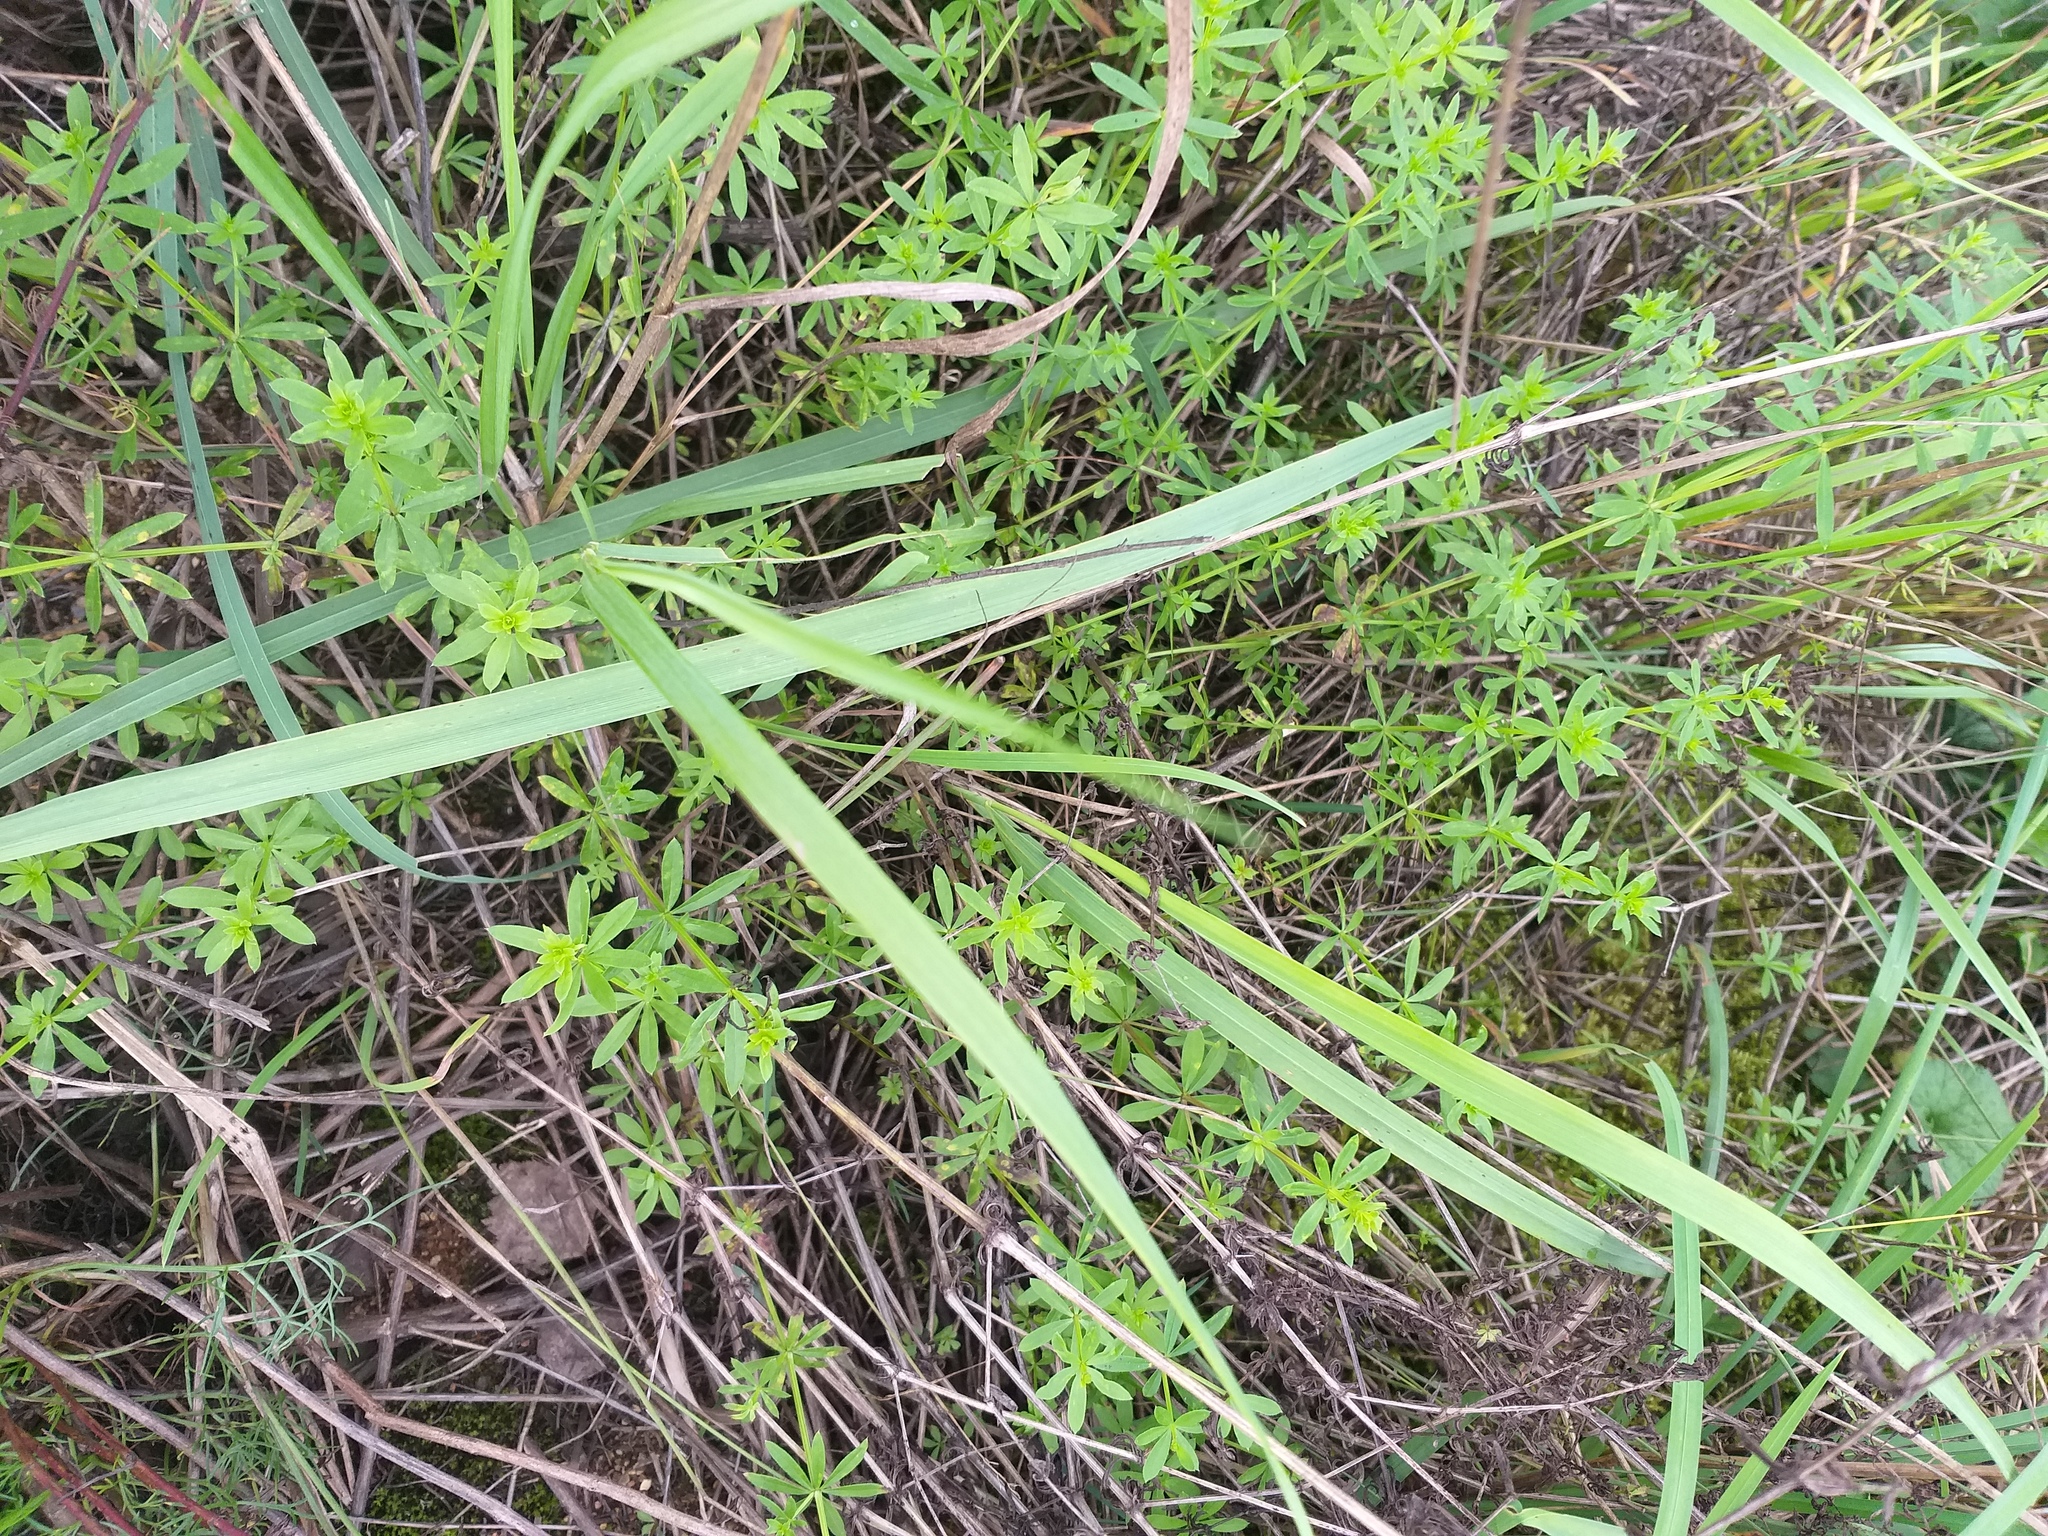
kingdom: Plantae
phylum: Tracheophyta
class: Magnoliopsida
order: Gentianales
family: Rubiaceae
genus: Galium
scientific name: Galium mollugo
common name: Hedge bedstraw
